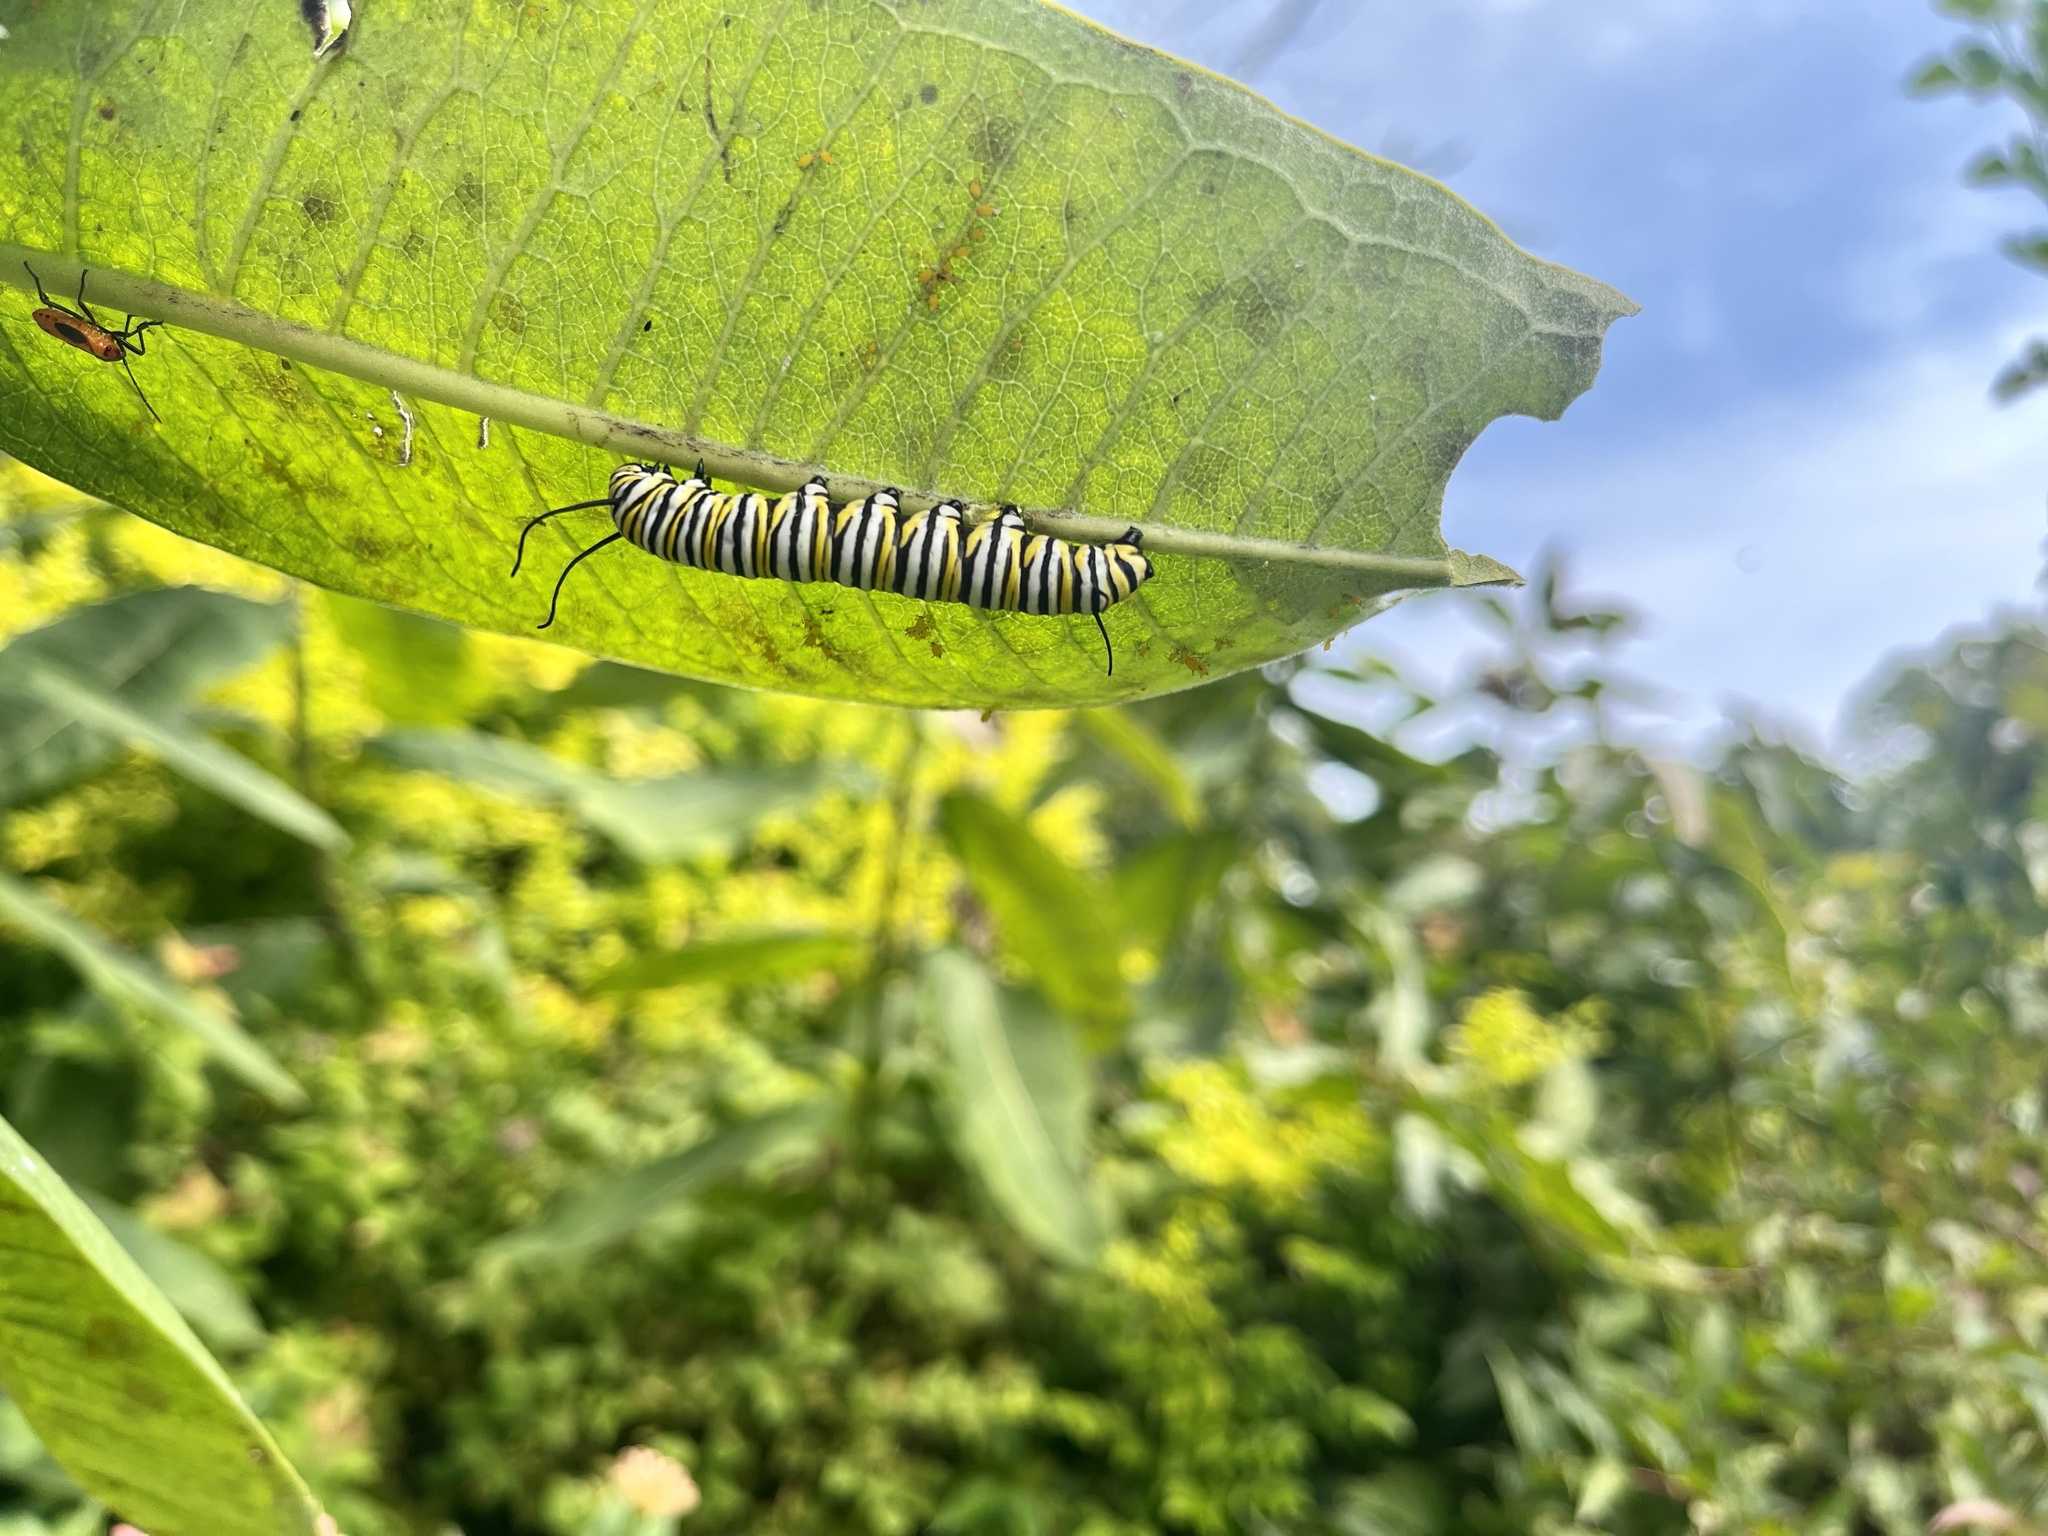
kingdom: Animalia
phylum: Arthropoda
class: Insecta
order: Lepidoptera
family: Nymphalidae
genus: Danaus
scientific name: Danaus plexippus
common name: Monarch
